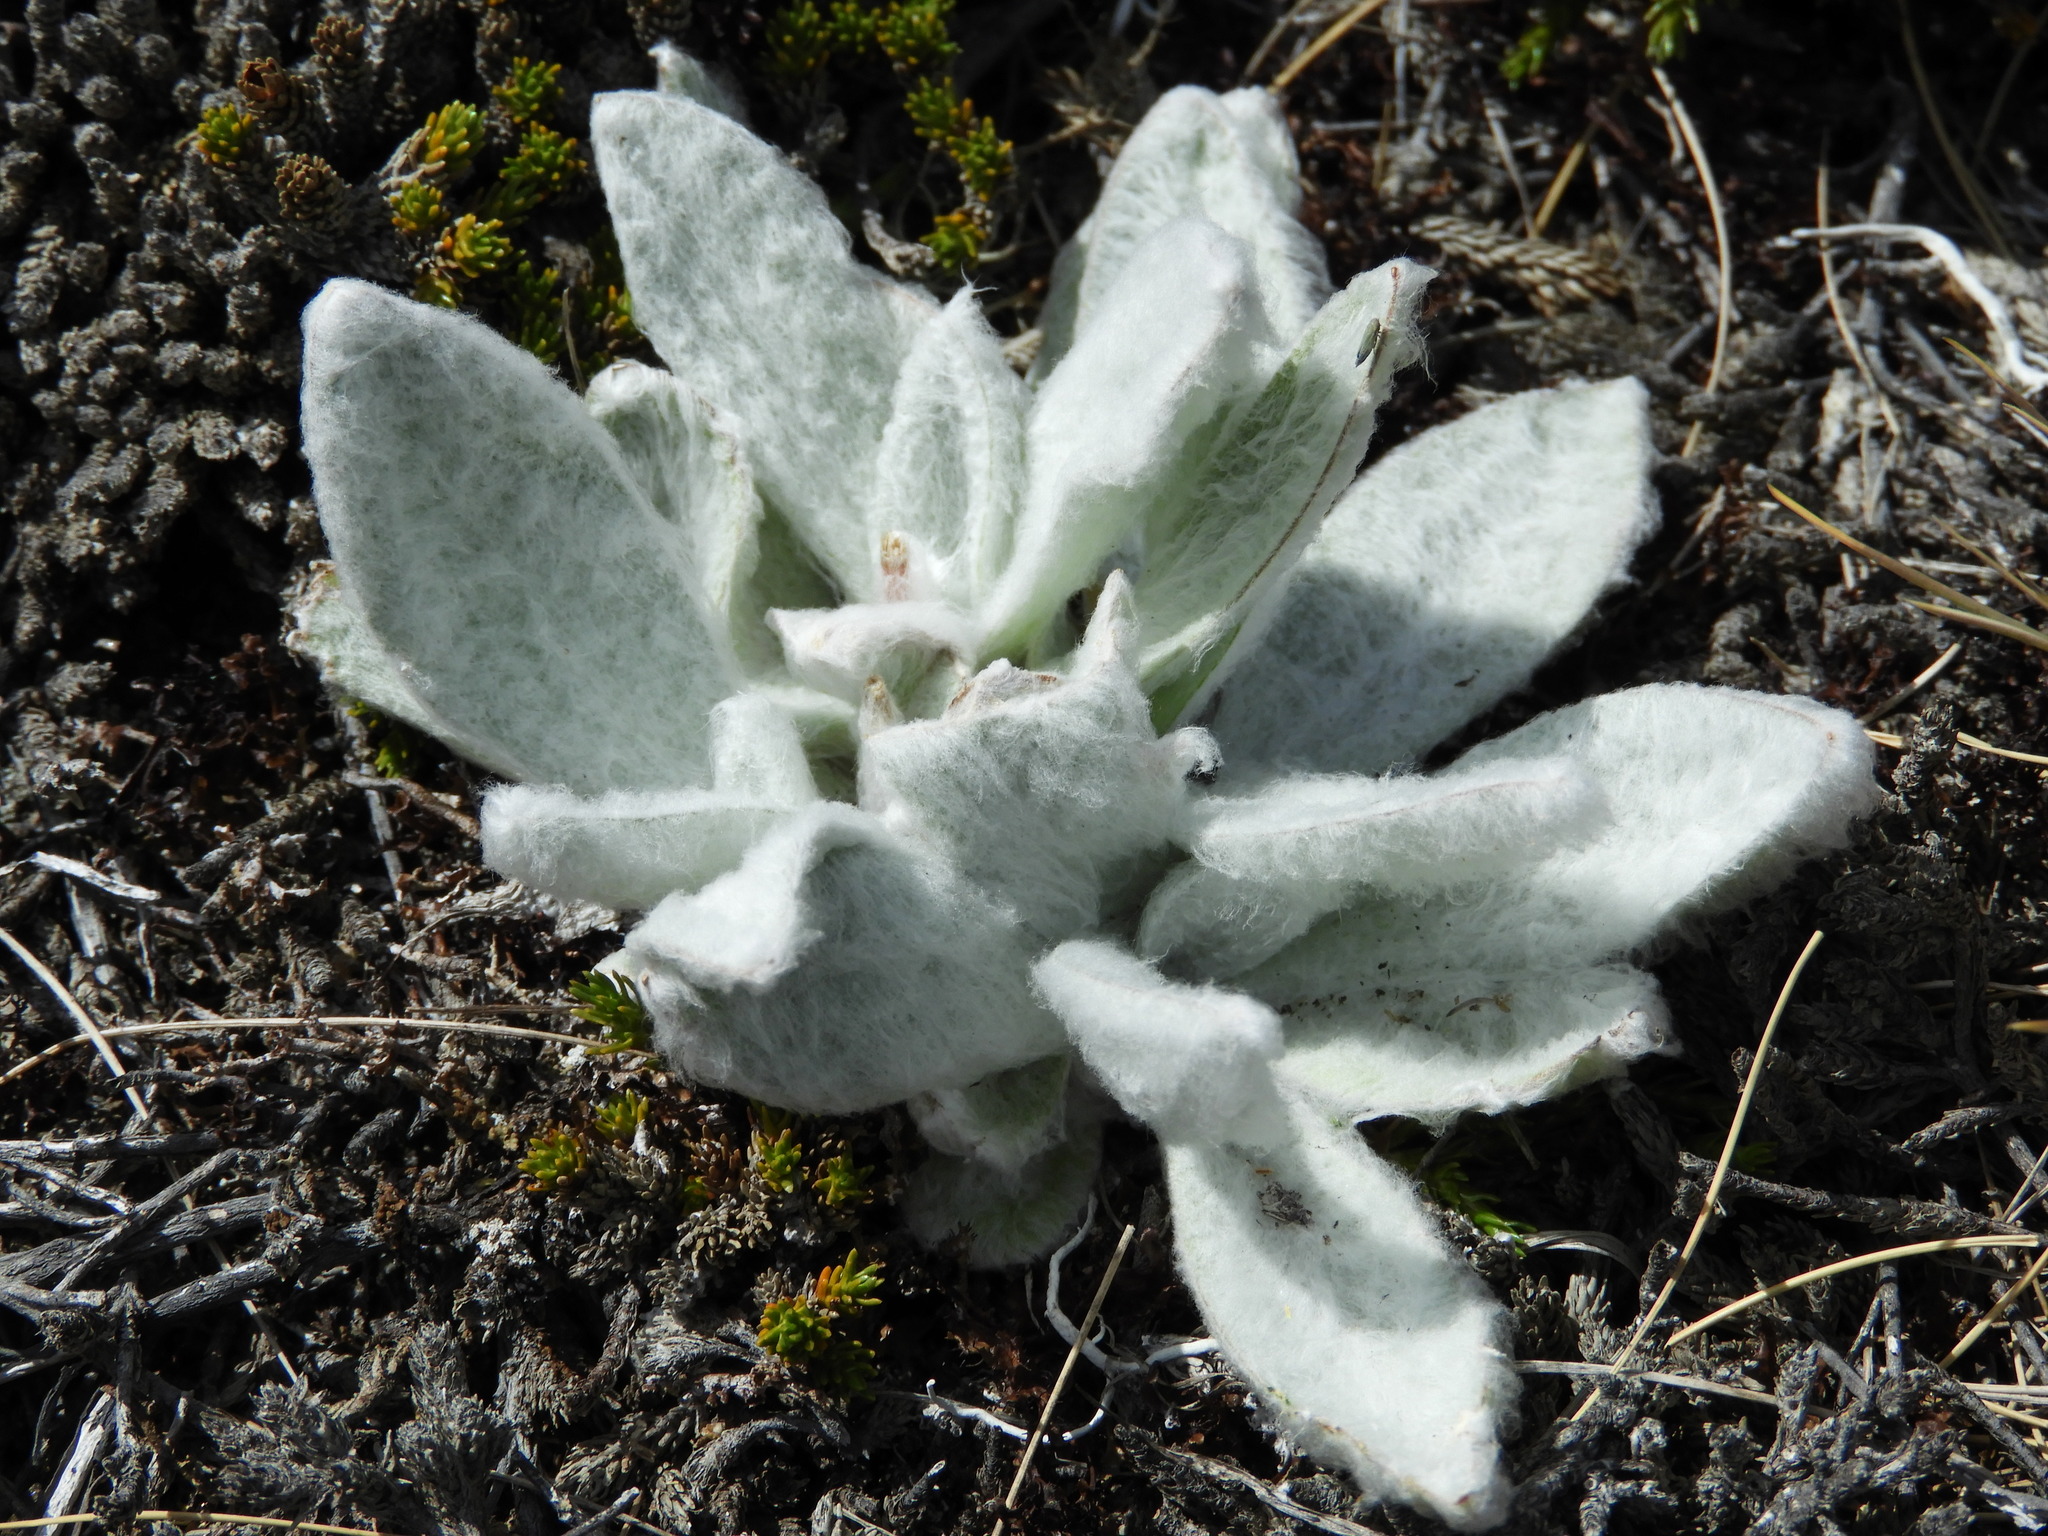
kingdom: Plantae
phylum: Tracheophyta
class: Magnoliopsida
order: Asterales
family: Asteraceae
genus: Craspedia
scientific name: Craspedia incana
